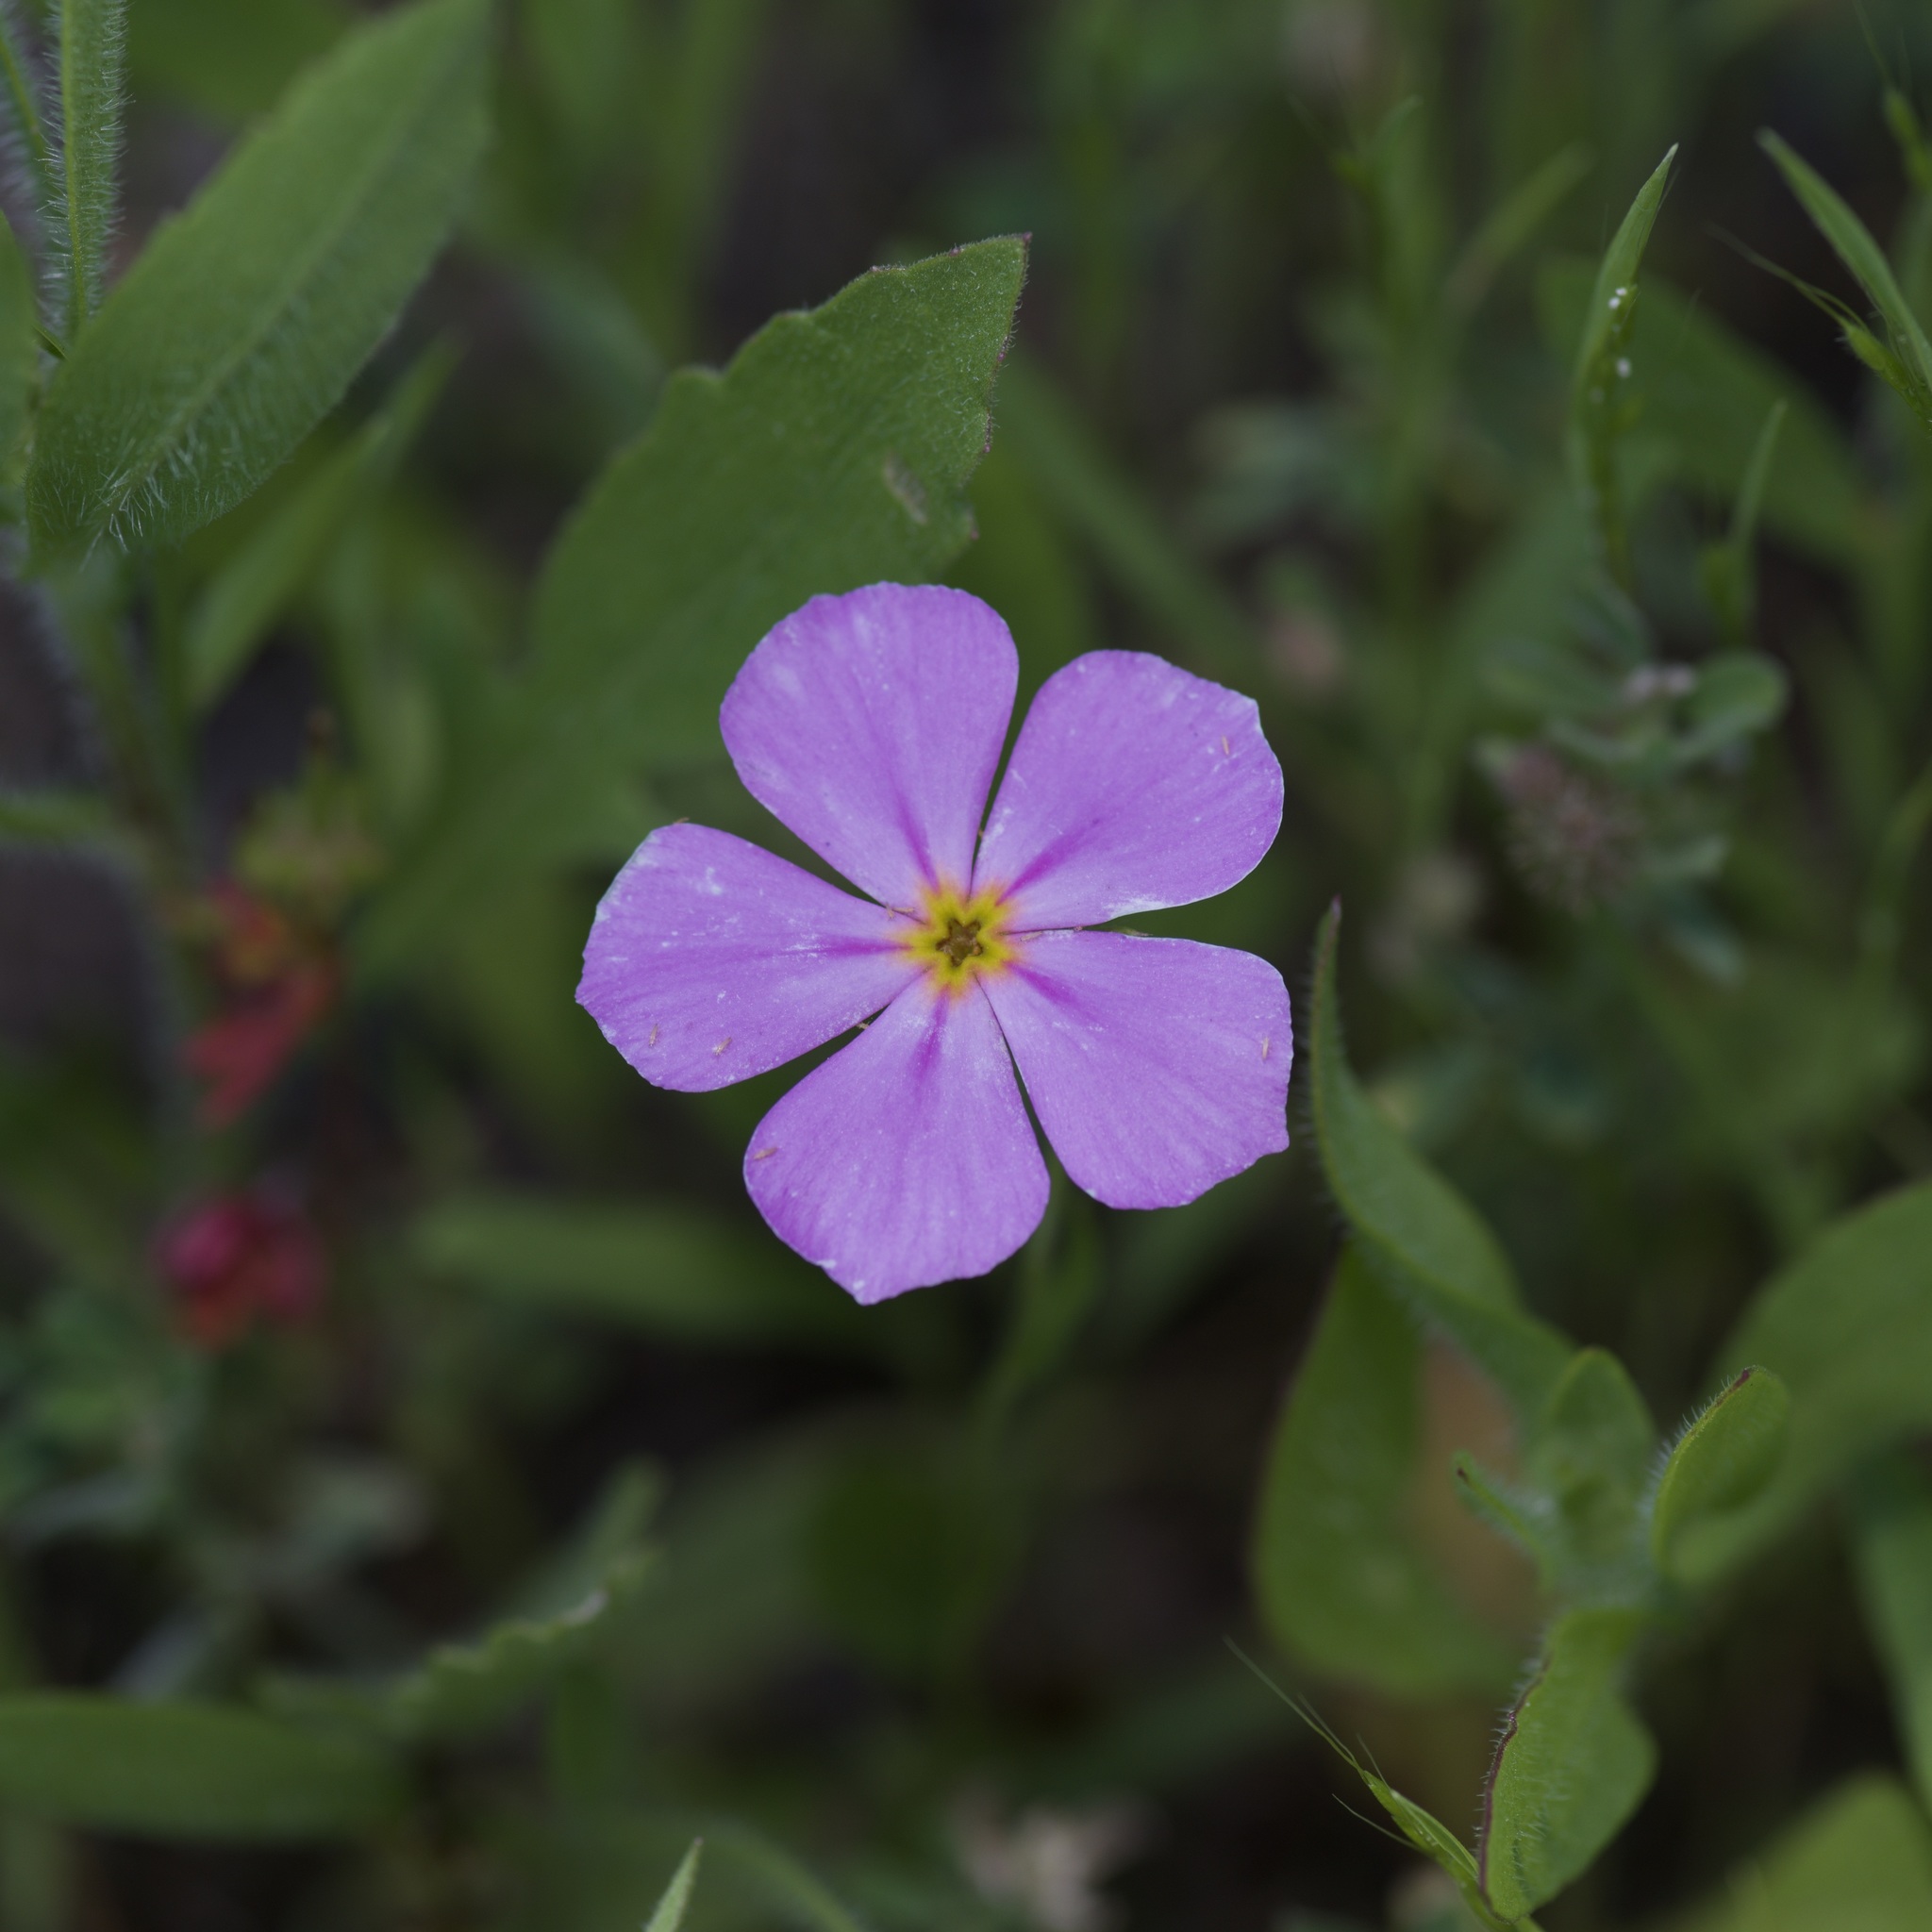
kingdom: Plantae
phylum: Tracheophyta
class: Magnoliopsida
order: Ericales
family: Polemoniaceae
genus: Phlox
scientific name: Phlox roemeriana
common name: Roemer's phlox
